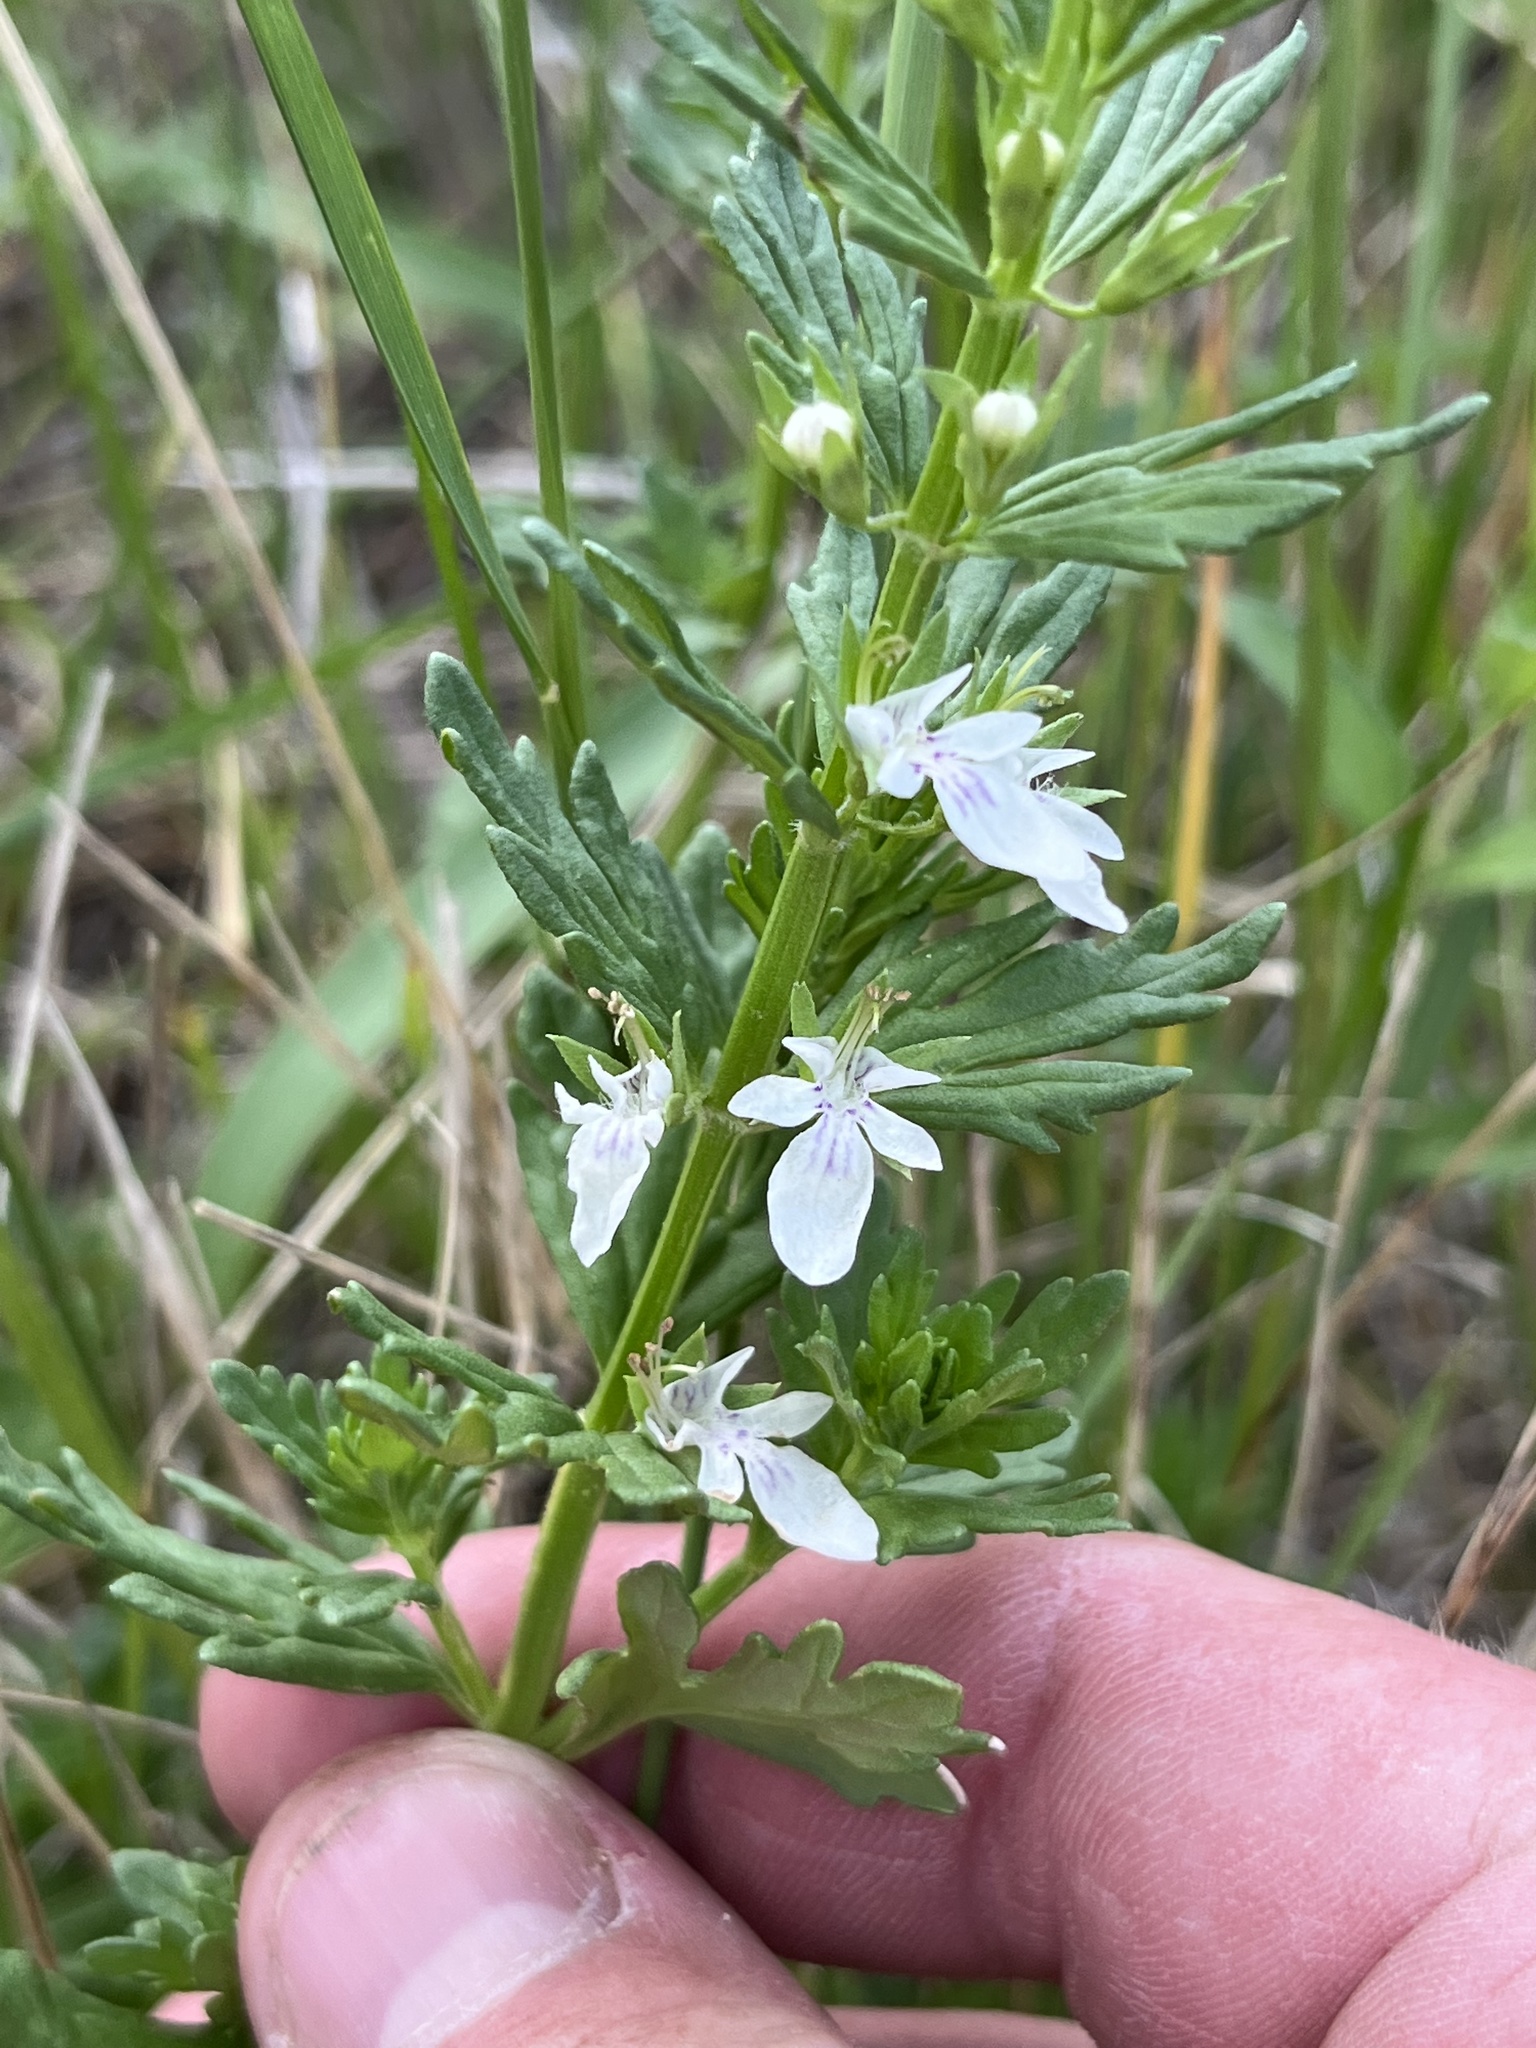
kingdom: Plantae
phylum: Tracheophyta
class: Magnoliopsida
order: Lamiales
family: Lamiaceae
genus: Teucrium
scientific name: Teucrium cubense
